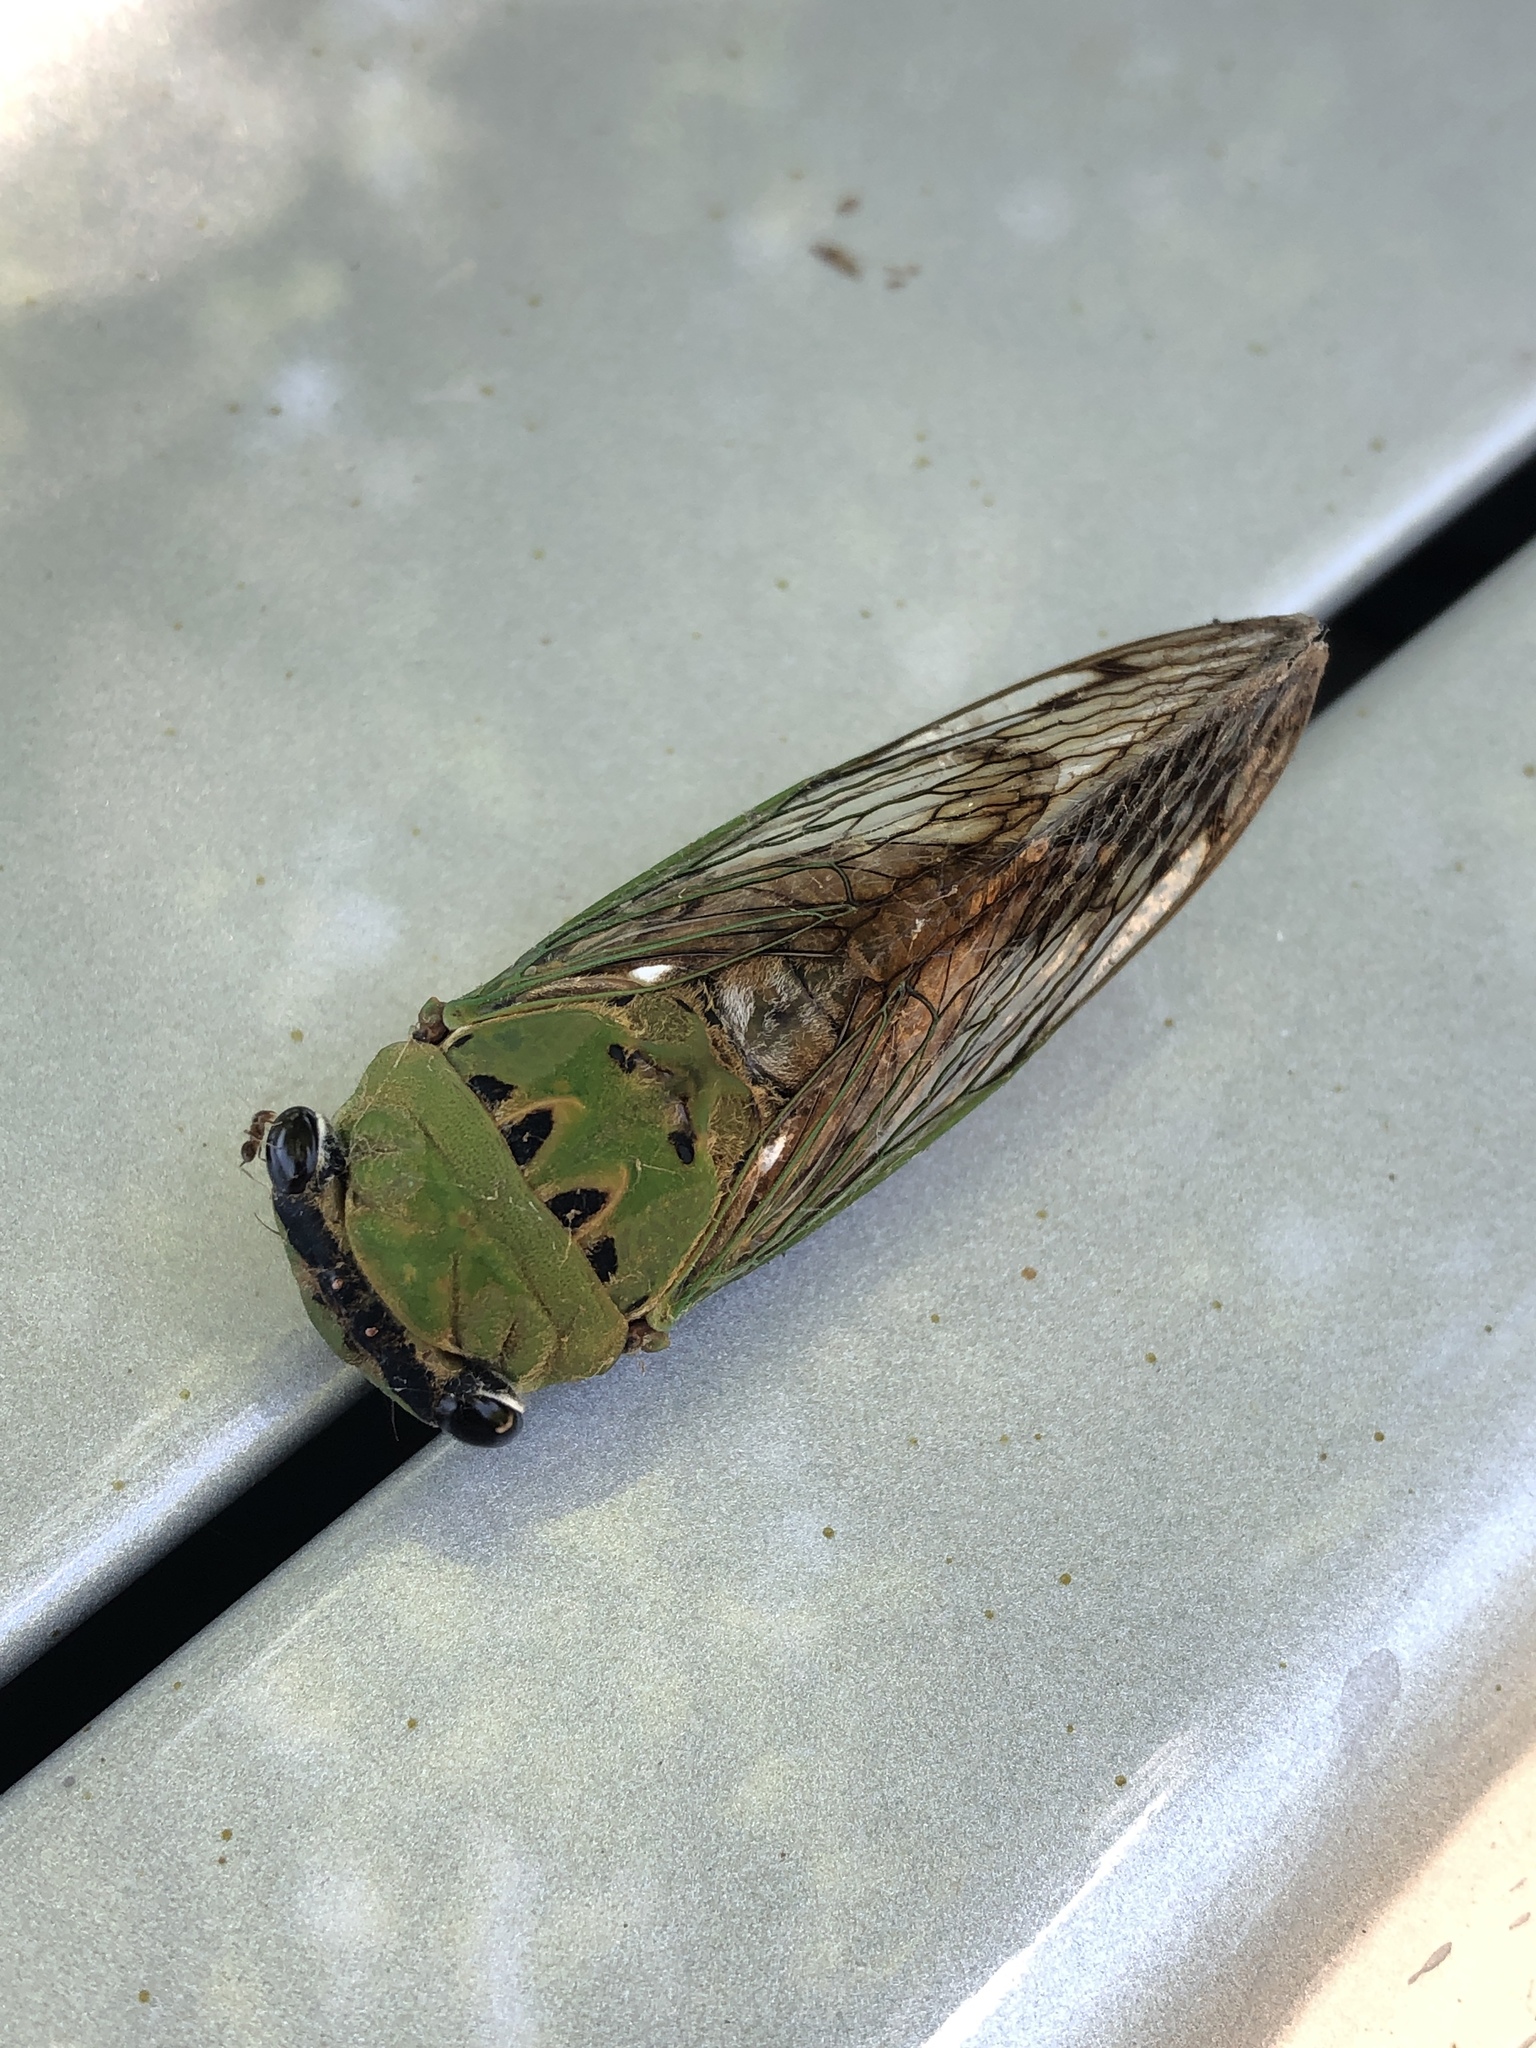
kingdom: Animalia
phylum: Arthropoda
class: Insecta
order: Hemiptera
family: Cicadidae
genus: Neotibicen
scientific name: Neotibicen superbus
